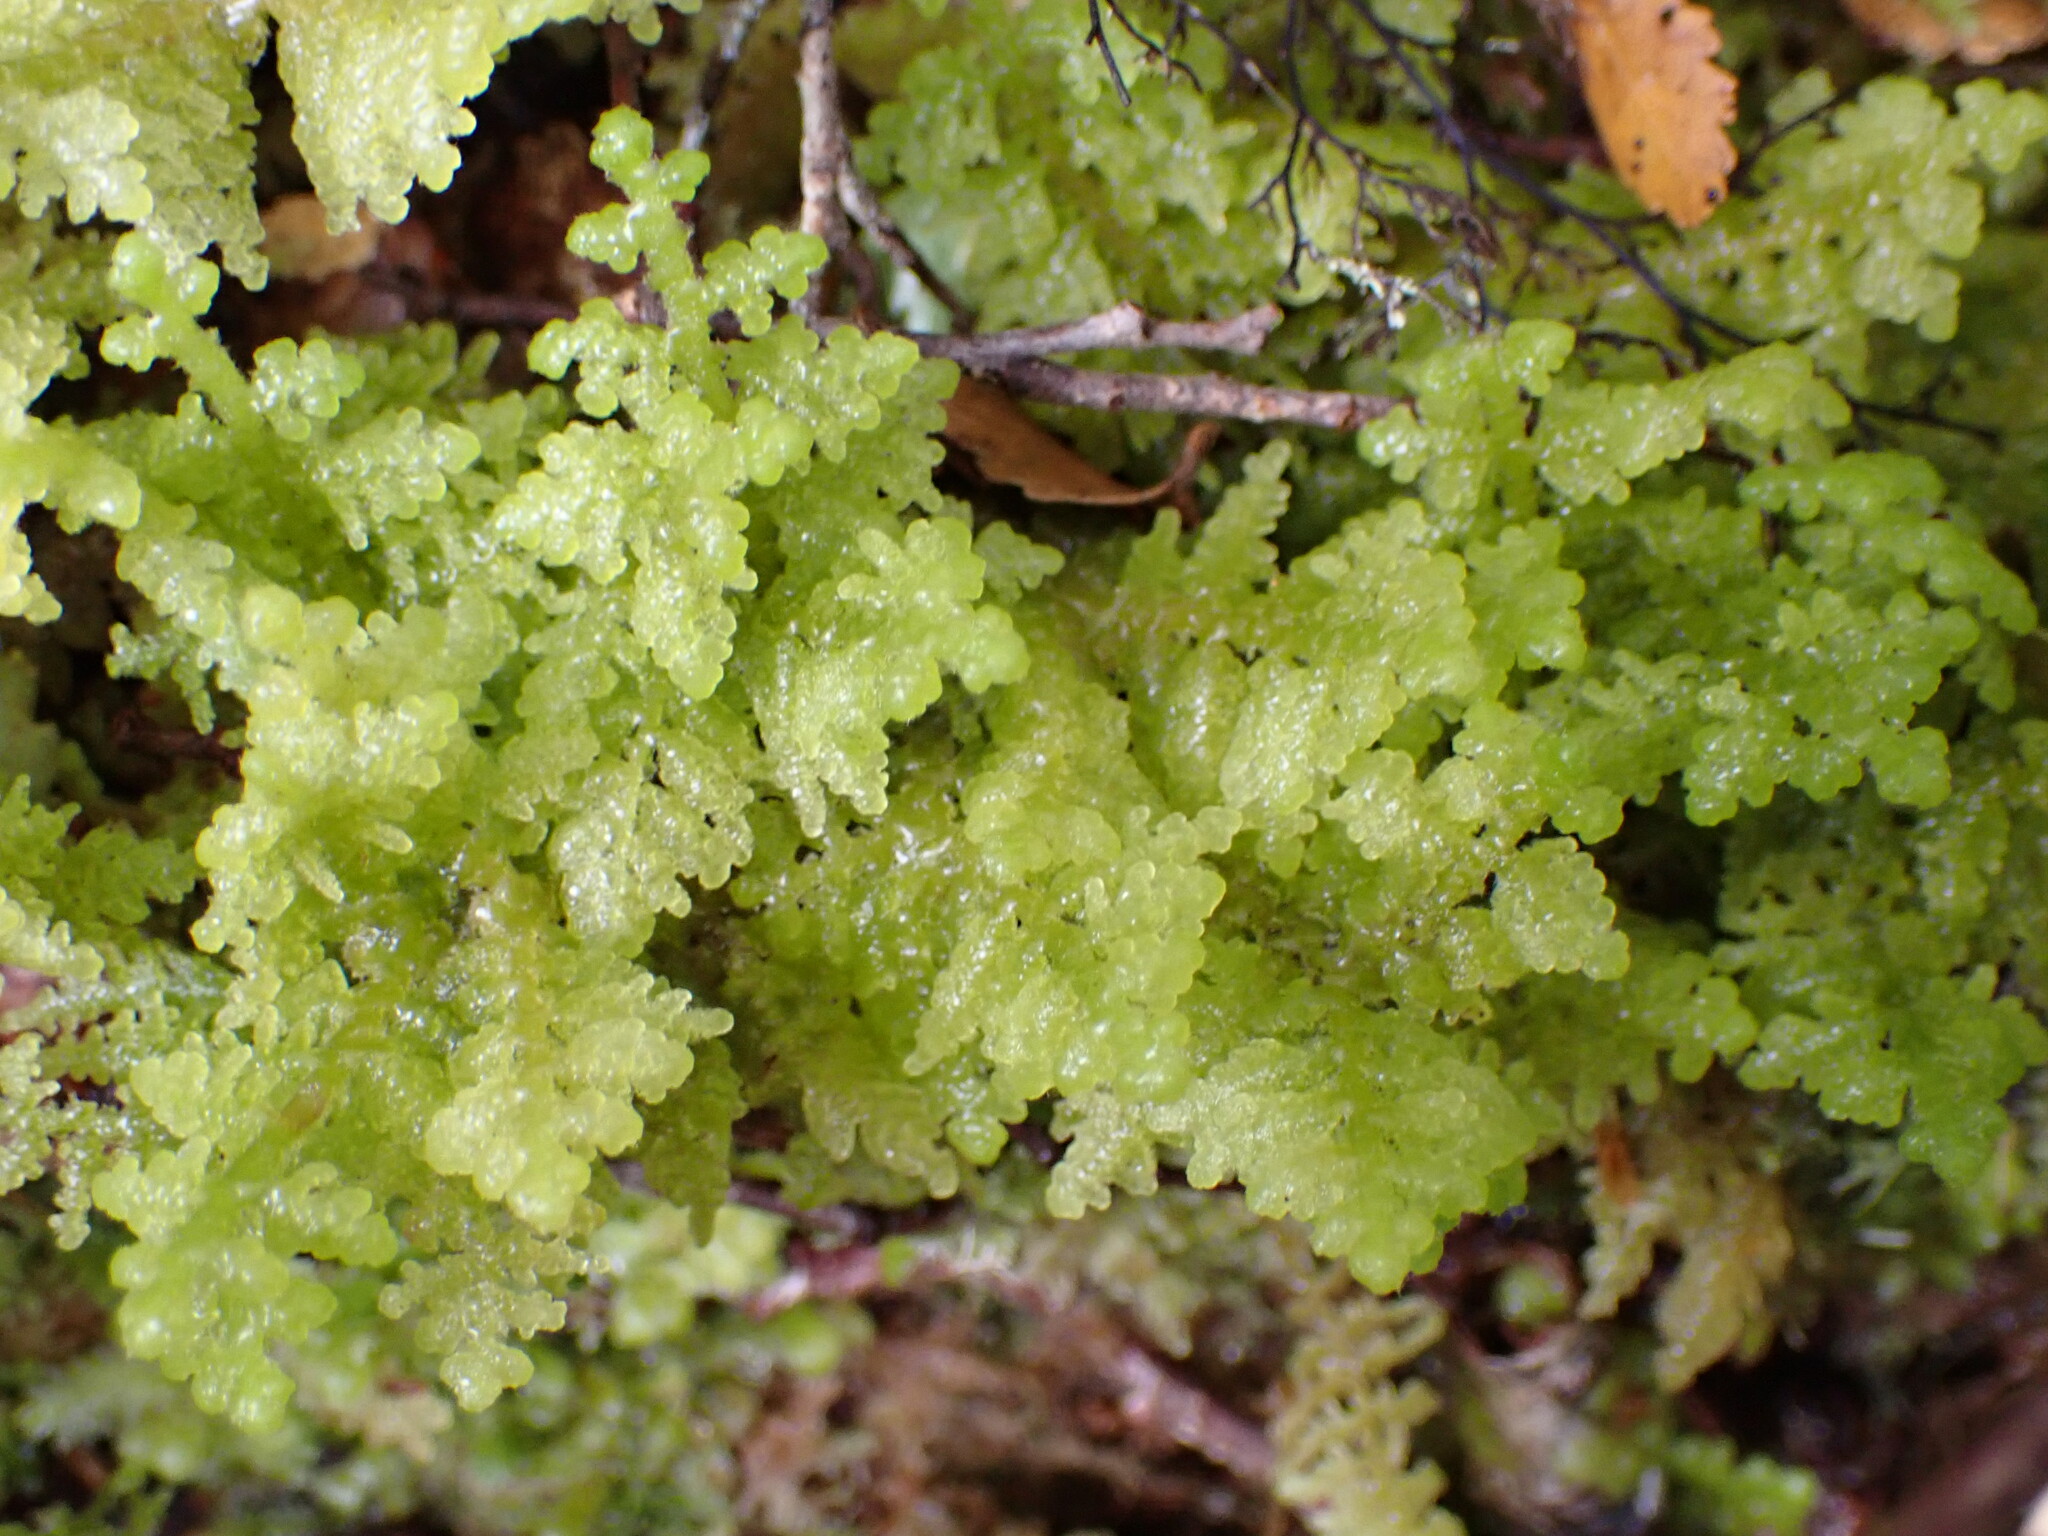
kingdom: Plantae
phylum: Marchantiophyta
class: Jungermanniopsida
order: Porellales
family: Lepidolaenaceae
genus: Lepidogyna
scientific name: Lepidogyna hodgsoniae
